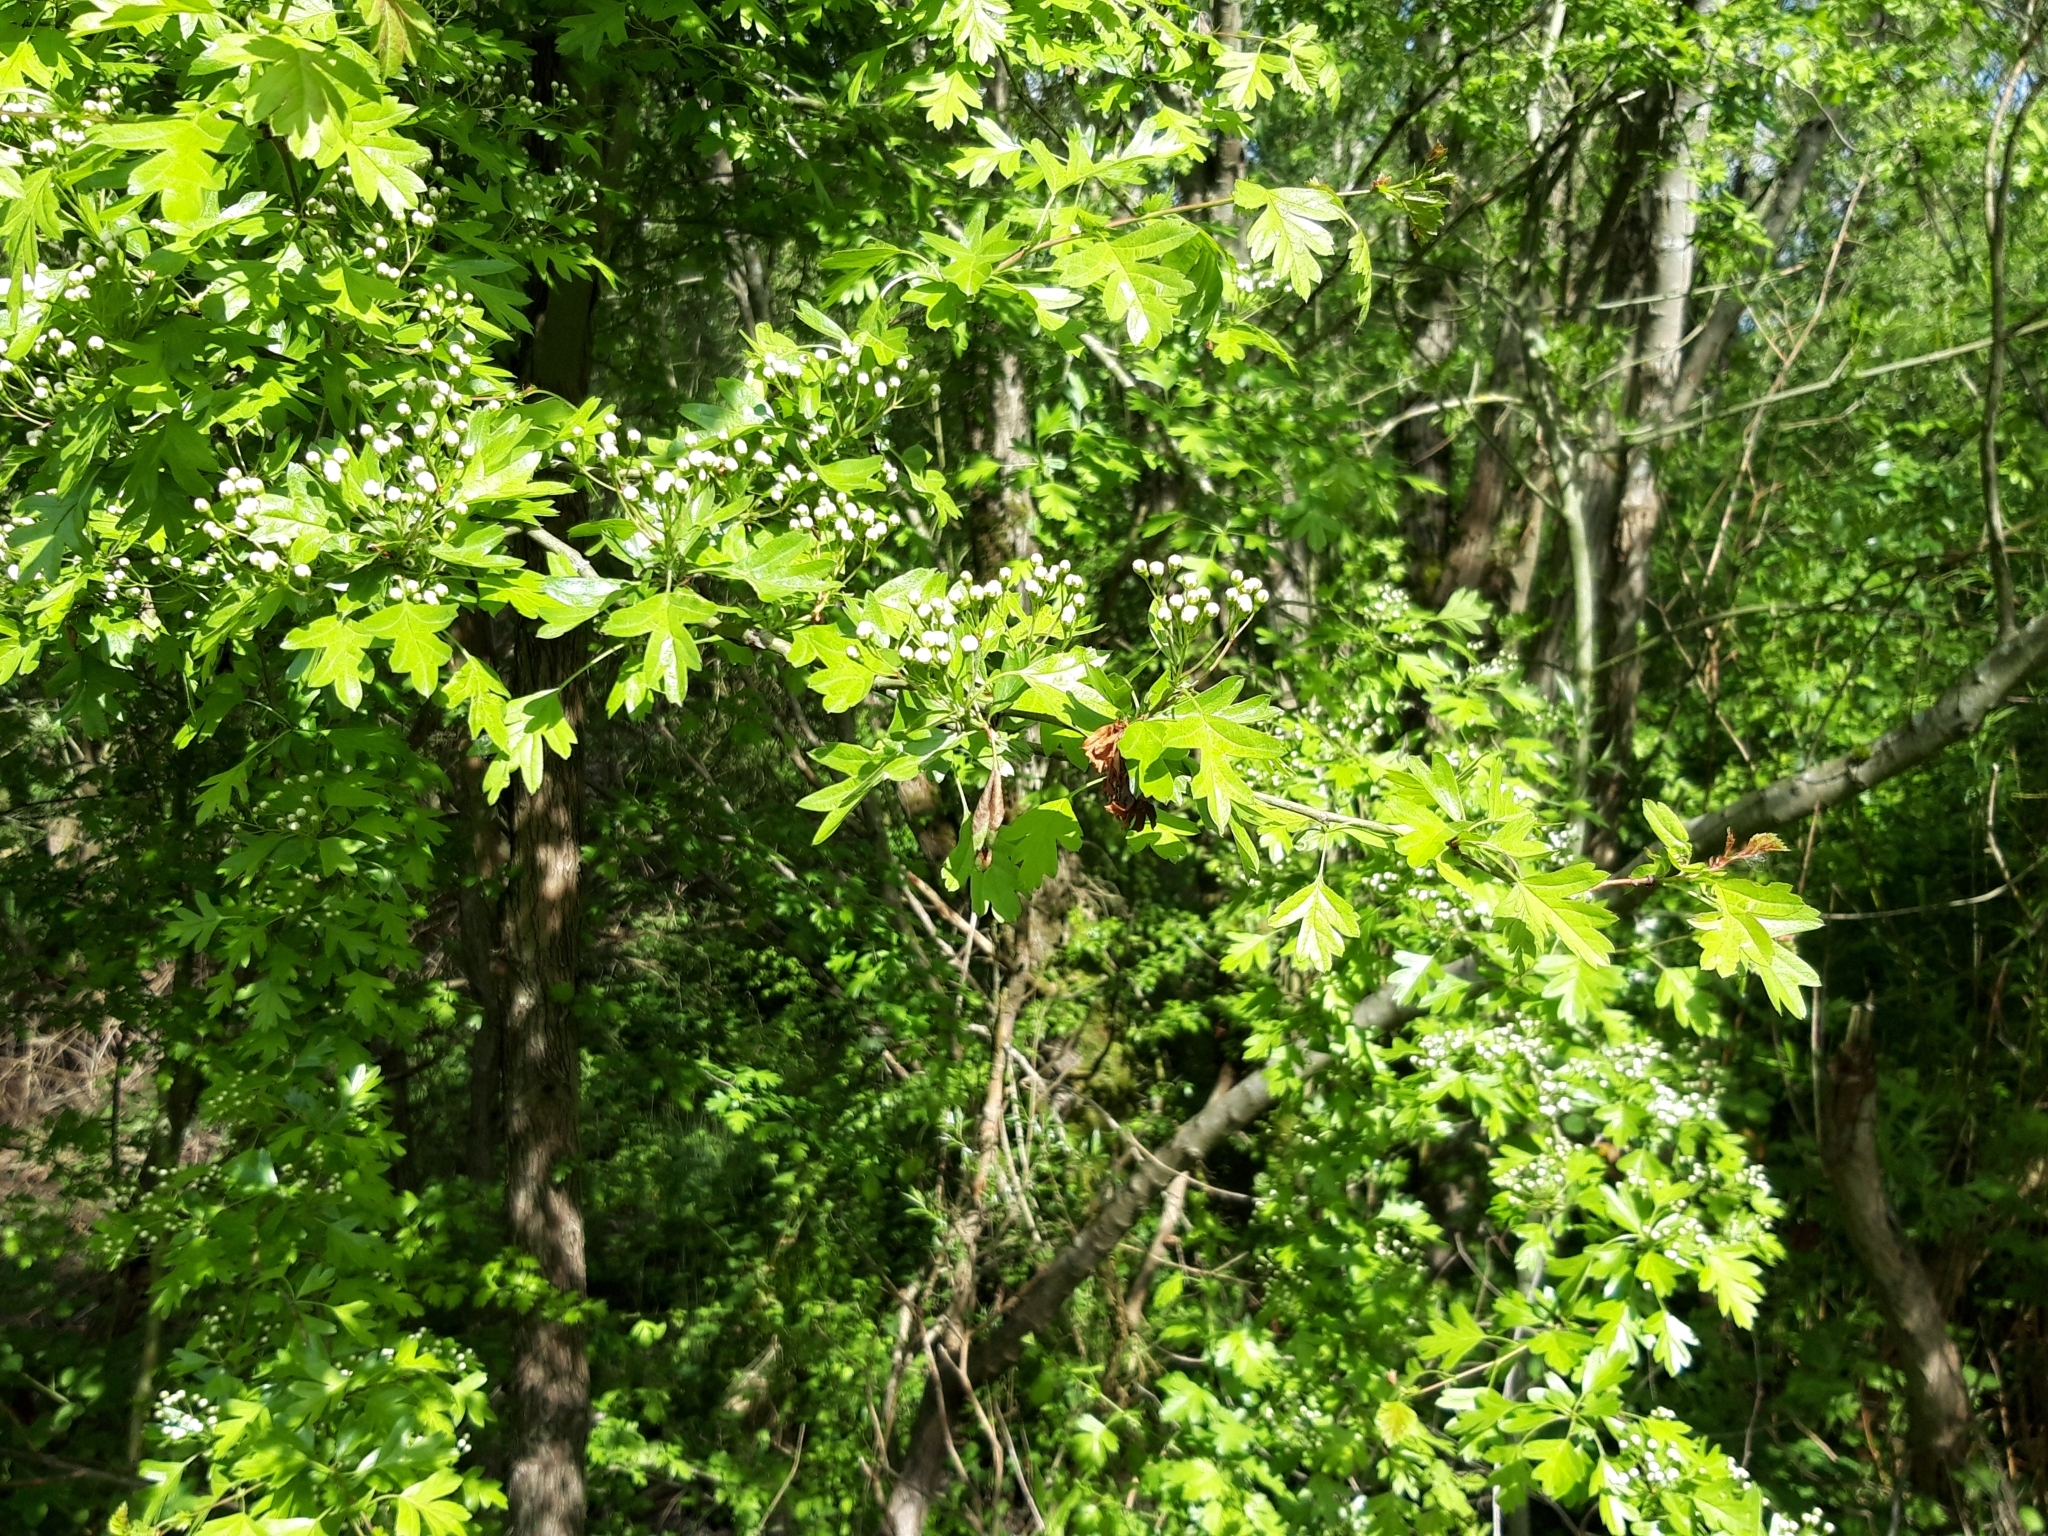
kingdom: Plantae
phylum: Tracheophyta
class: Magnoliopsida
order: Rosales
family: Rosaceae
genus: Crataegus
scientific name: Crataegus monogyna
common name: Hawthorn
